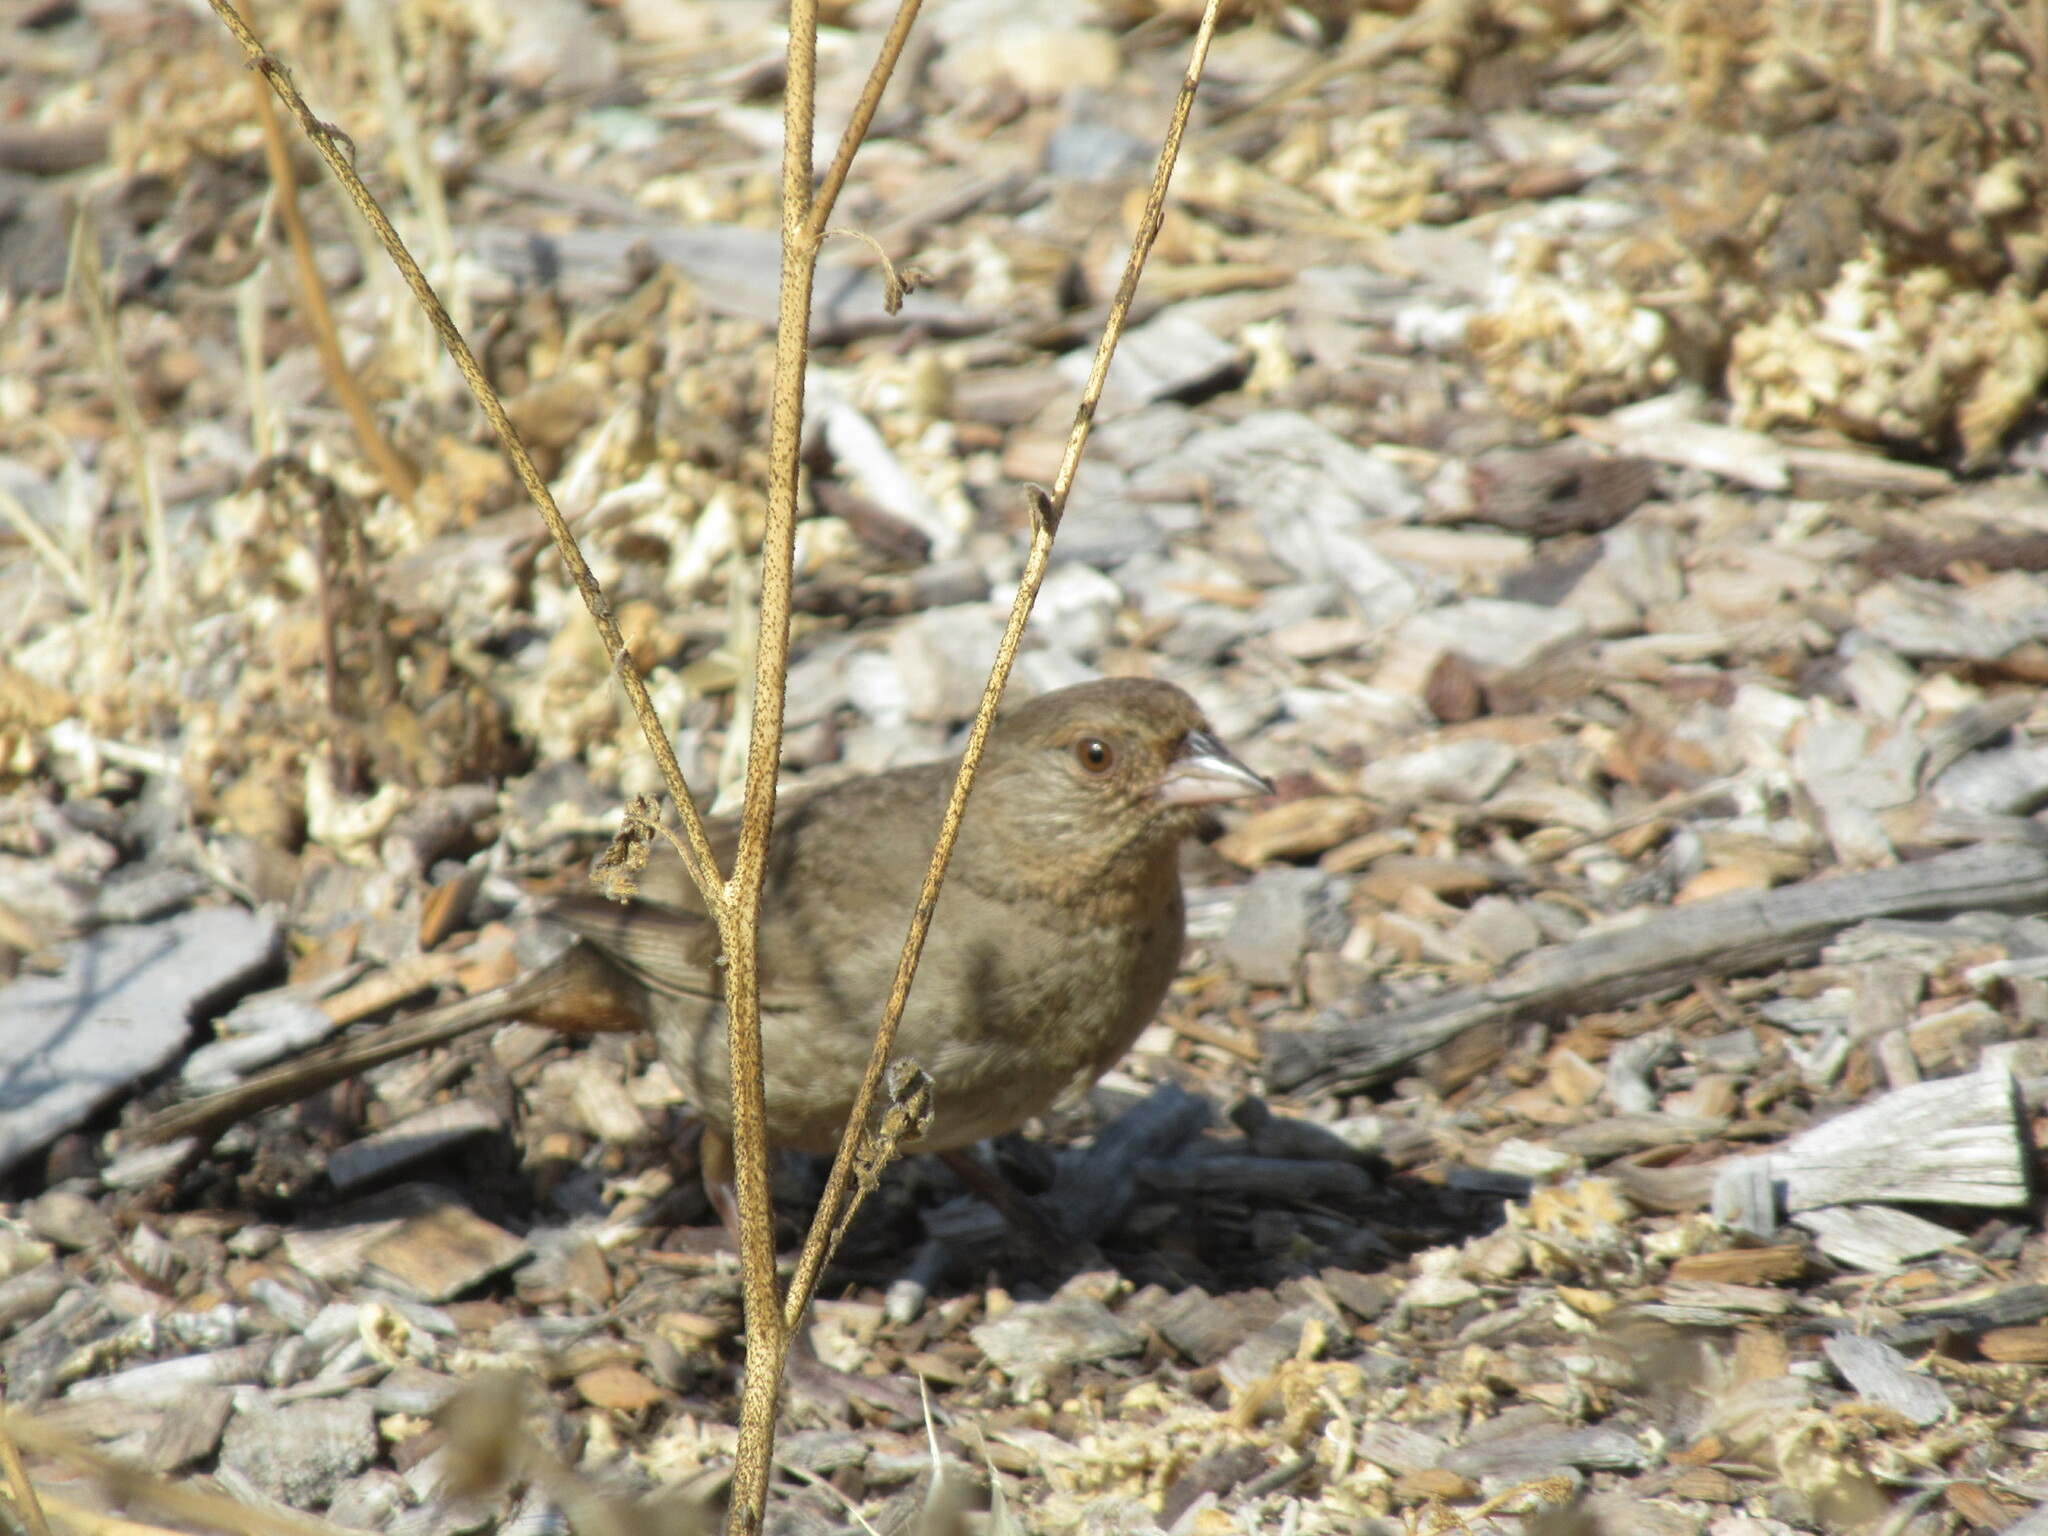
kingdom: Animalia
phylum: Chordata
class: Aves
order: Passeriformes
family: Passerellidae
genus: Melozone
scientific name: Melozone crissalis
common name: California towhee
